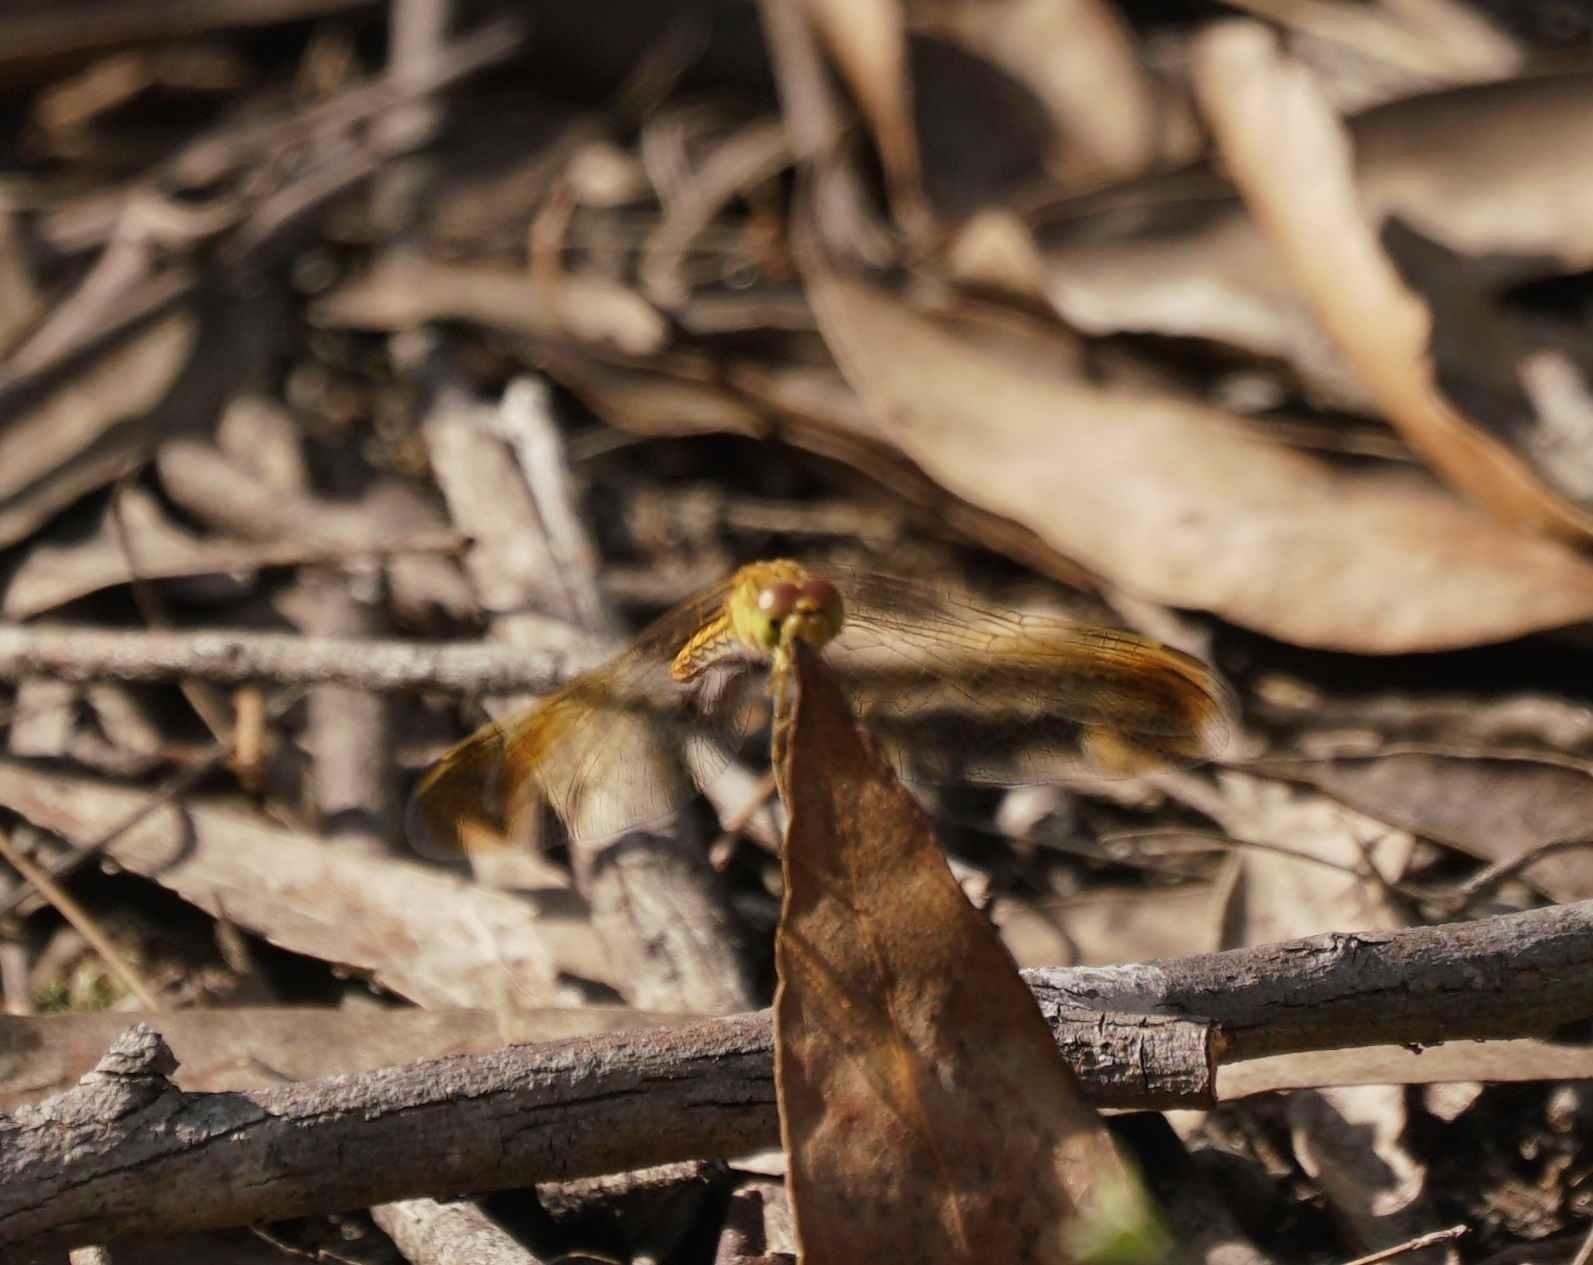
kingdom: Animalia
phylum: Arthropoda
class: Insecta
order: Odonata
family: Libellulidae
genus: Diplacodes
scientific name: Diplacodes haematodes
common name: Scarlet percher
